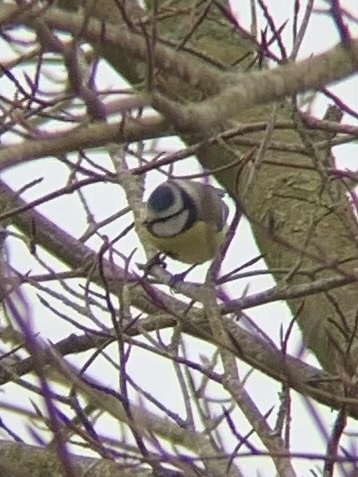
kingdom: Animalia
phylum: Chordata
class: Aves
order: Passeriformes
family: Paridae
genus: Cyanistes
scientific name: Cyanistes caeruleus
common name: Eurasian blue tit
